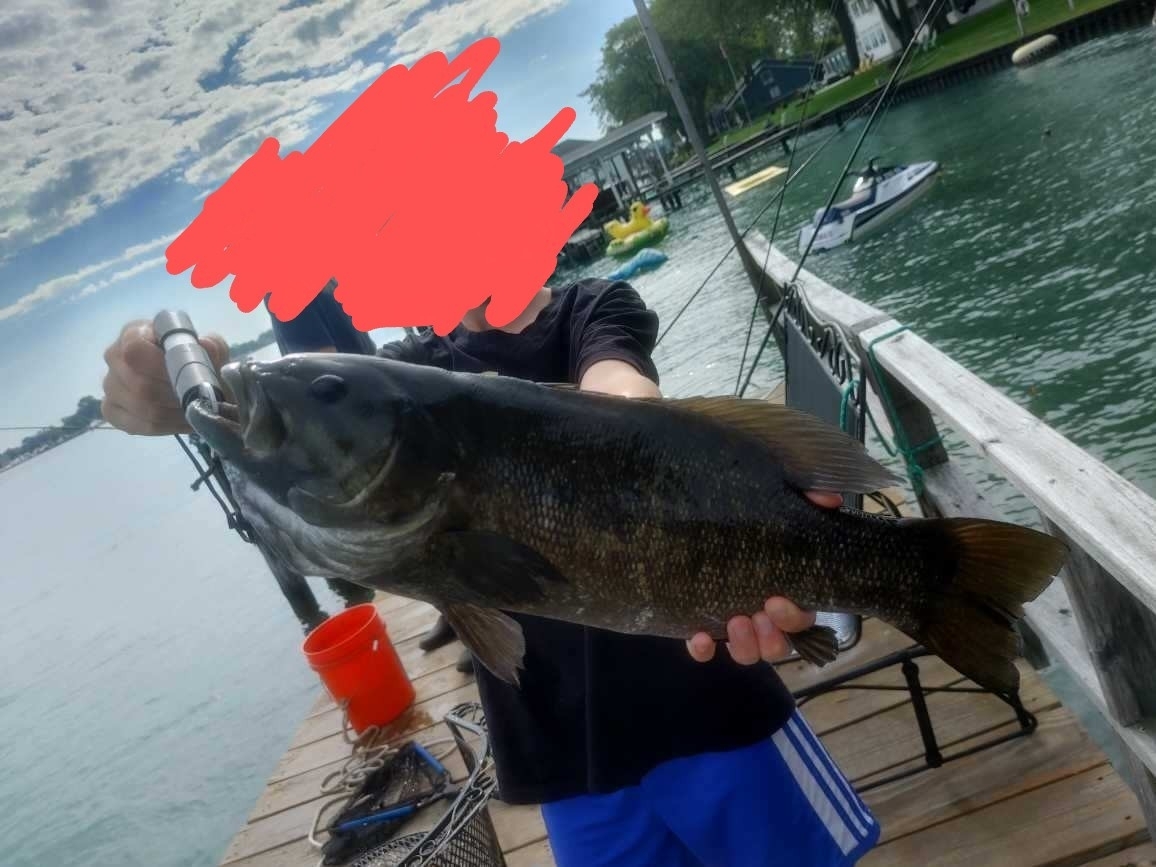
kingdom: Animalia
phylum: Chordata
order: Perciformes
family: Centrarchidae
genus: Micropterus
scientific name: Micropterus dolomieu
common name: Smallmouth bass
